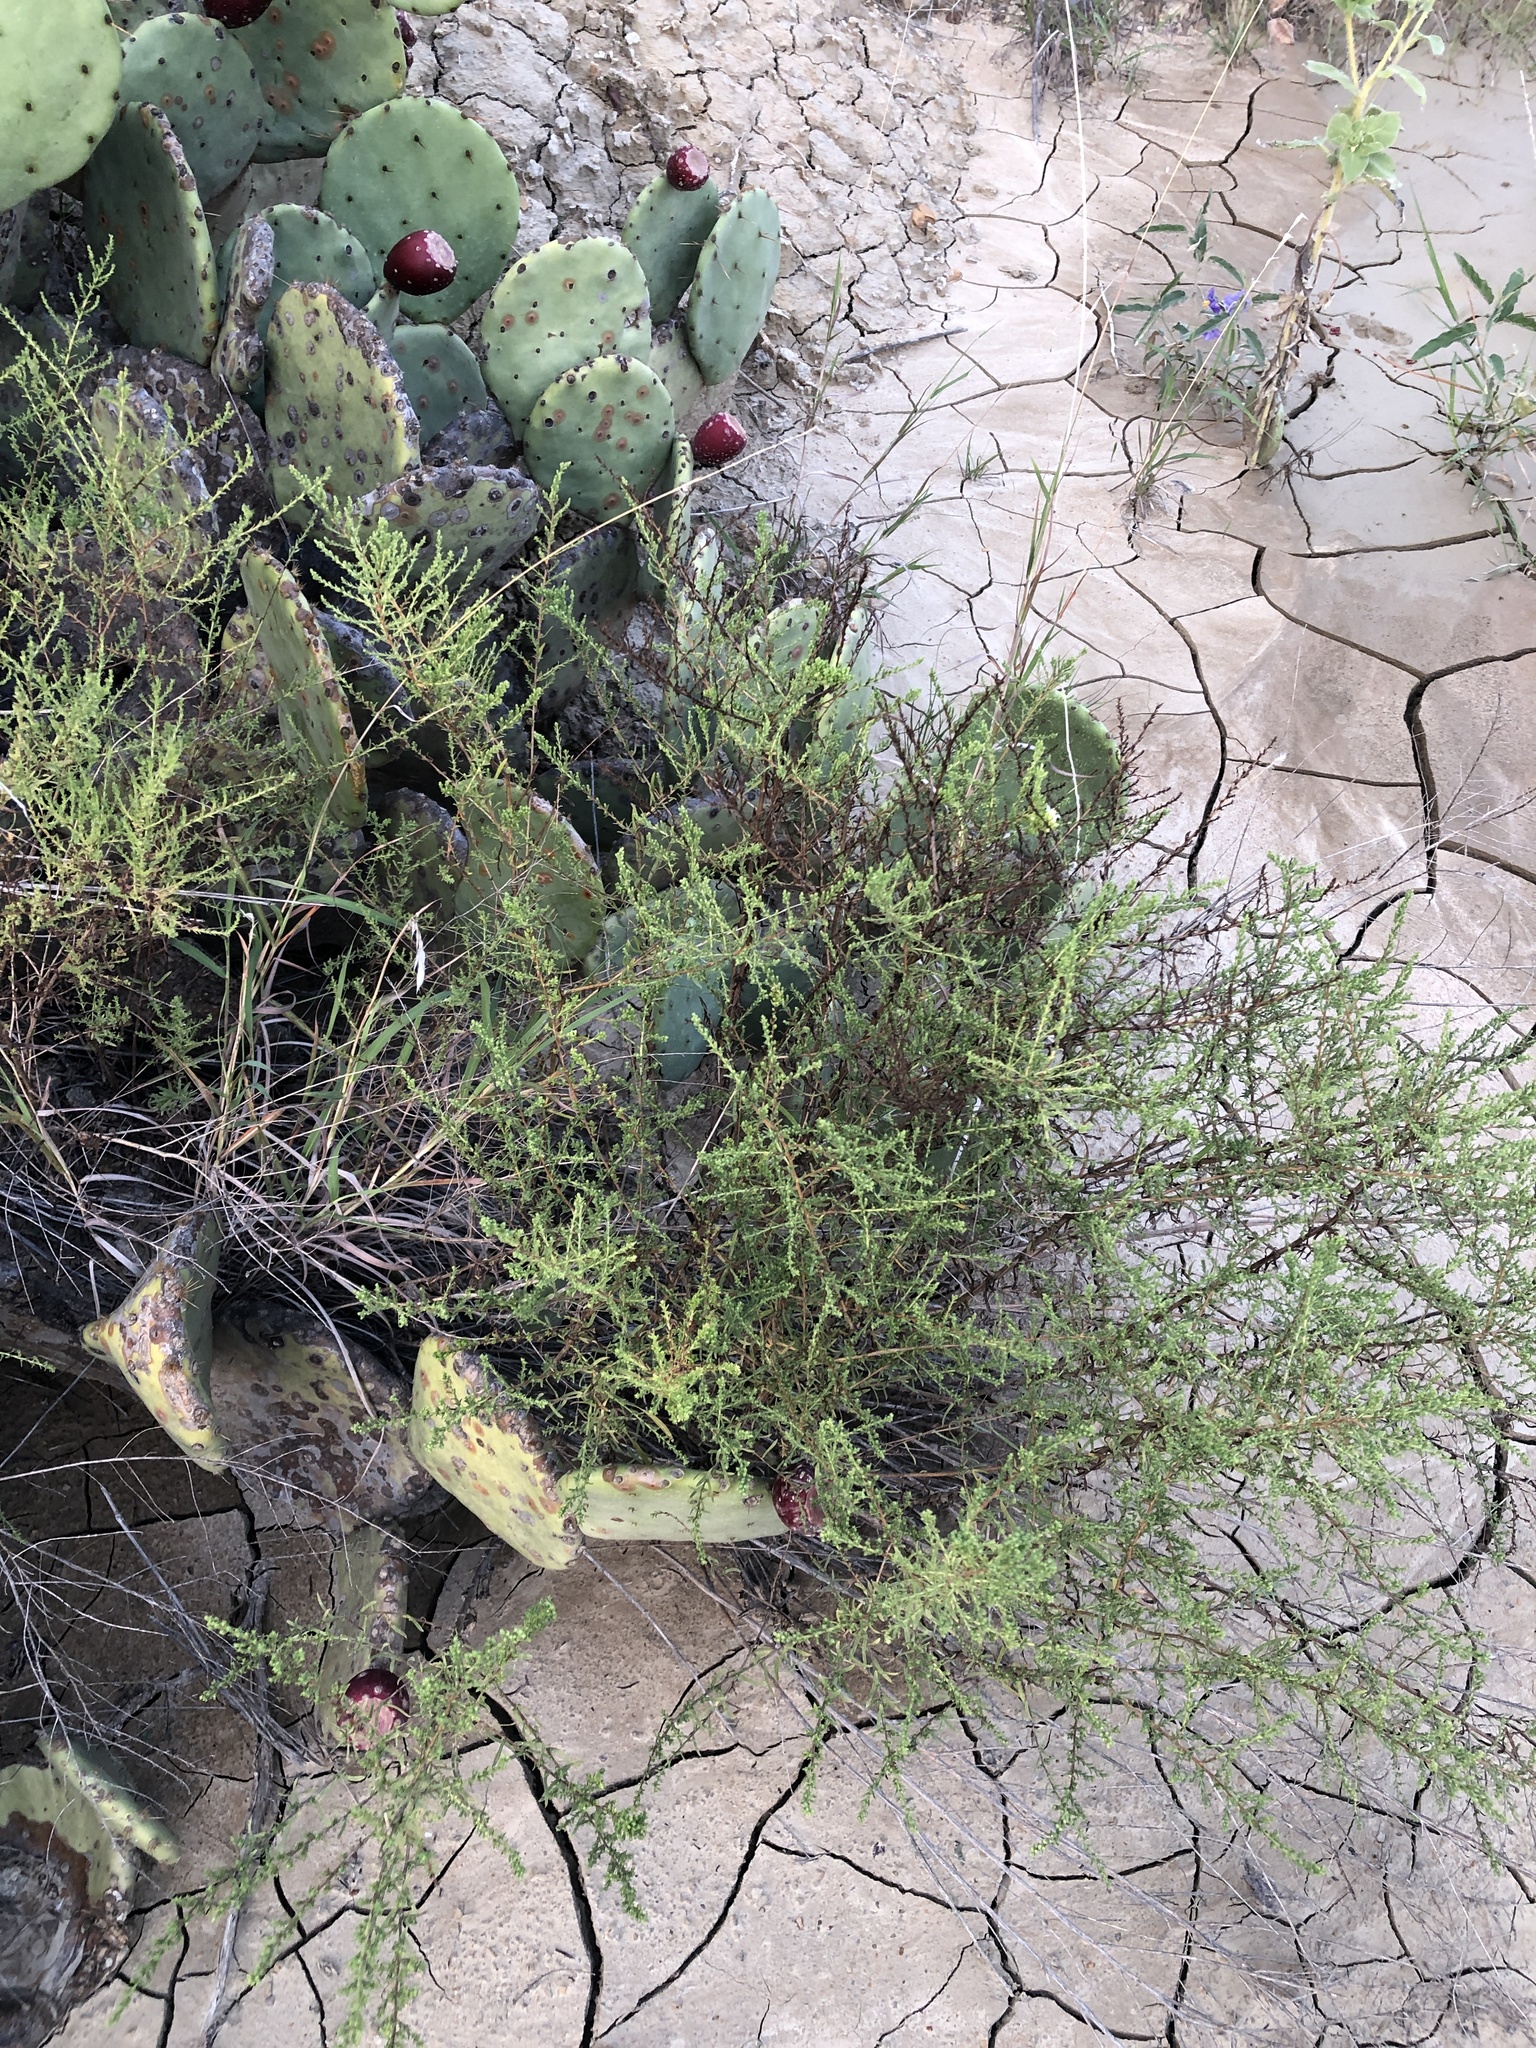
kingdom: Plantae
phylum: Tracheophyta
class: Magnoliopsida
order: Asterales
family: Asteraceae
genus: Symphyotrichum
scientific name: Symphyotrichum ericoides
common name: Heath aster
